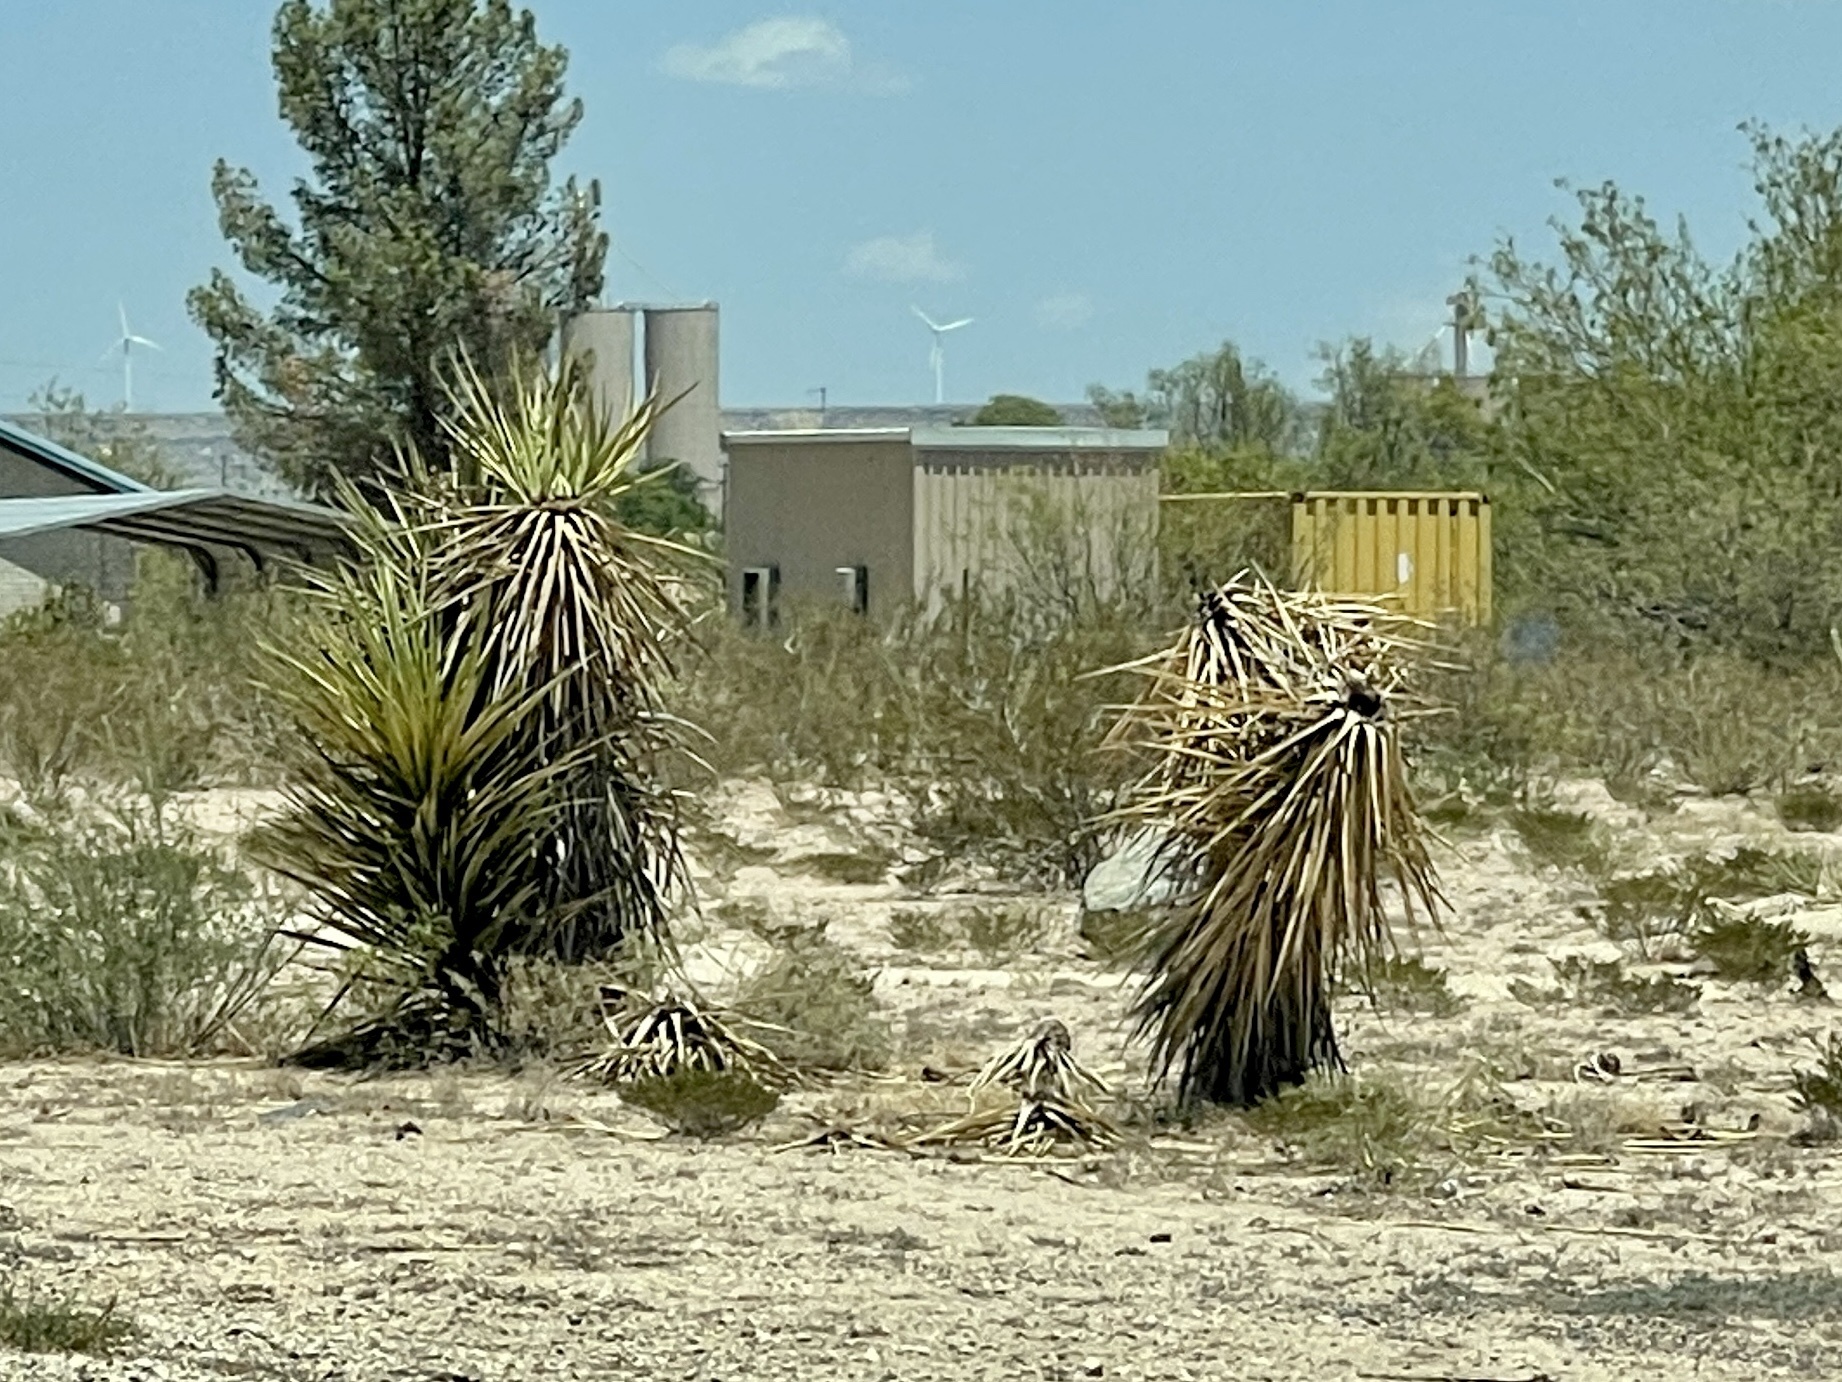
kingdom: Plantae
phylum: Tracheophyta
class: Liliopsida
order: Asparagales
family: Asparagaceae
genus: Yucca
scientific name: Yucca treculiana
